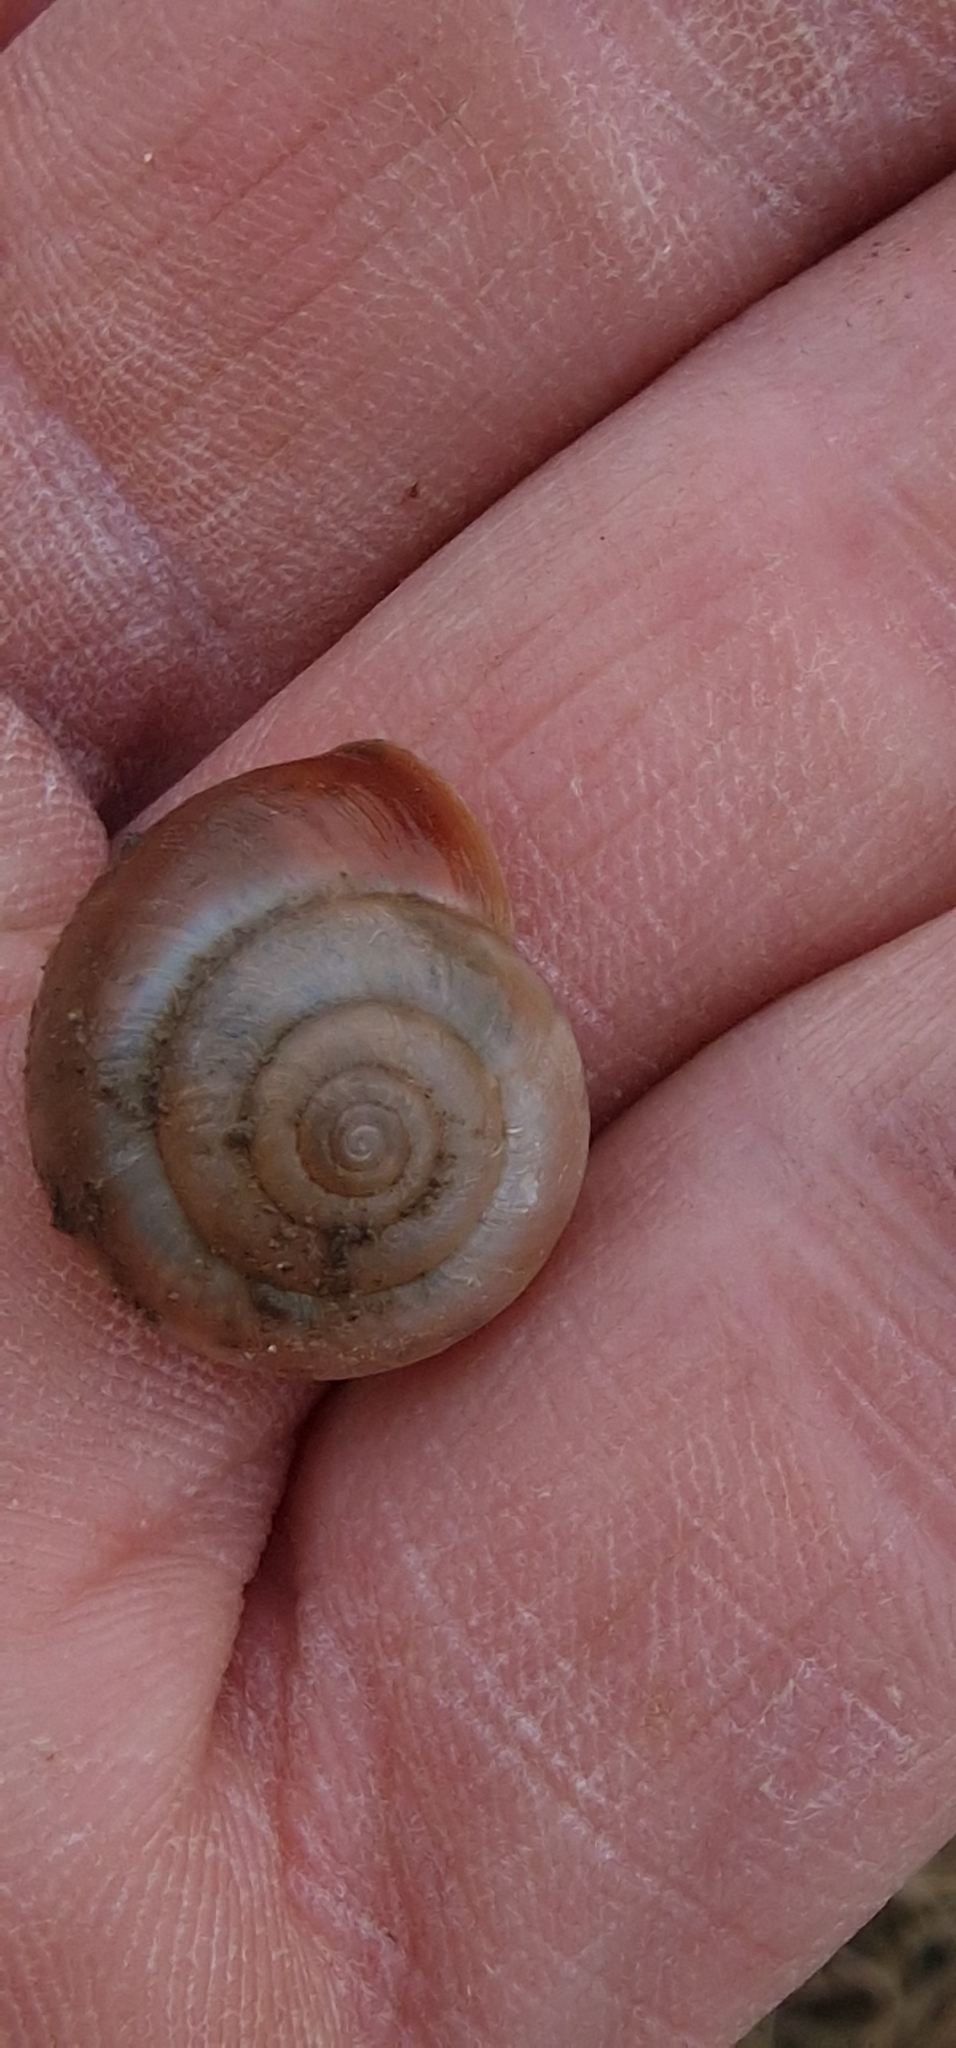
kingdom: Animalia
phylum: Mollusca
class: Gastropoda
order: Stylommatophora
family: Hygromiidae
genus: Monacha
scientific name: Monacha cantiana
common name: Kentish snail
